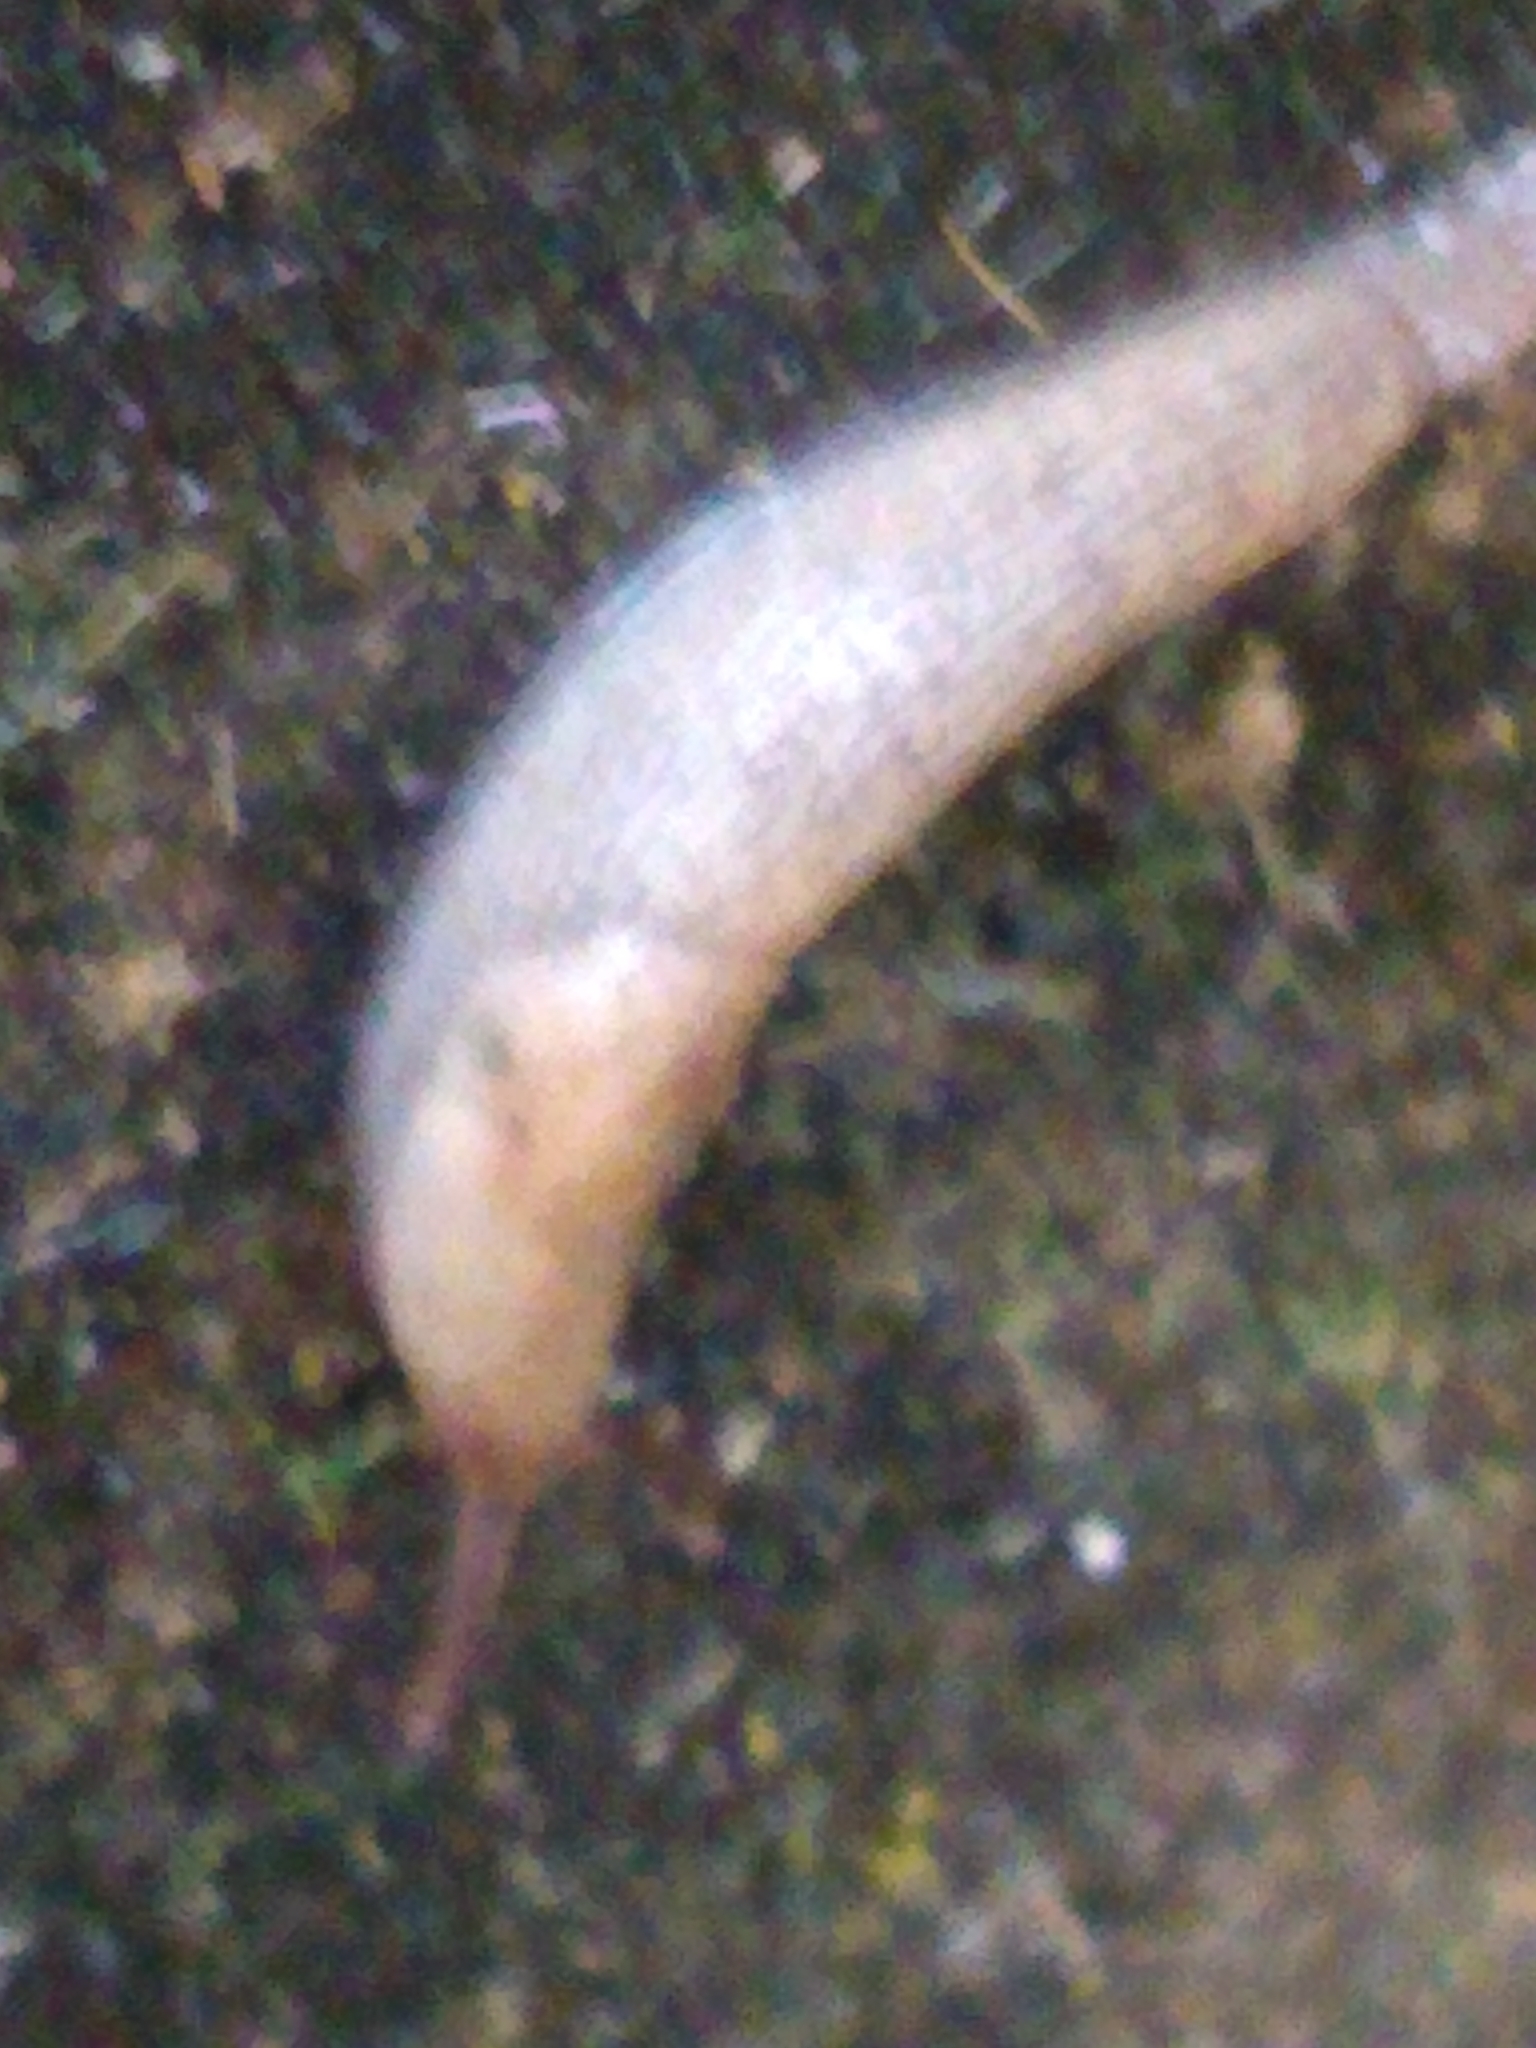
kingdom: Animalia
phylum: Mollusca
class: Gastropoda
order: Stylommatophora
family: Agriolimacidae
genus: Deroceras
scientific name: Deroceras reticulatum
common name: Gray field slug
